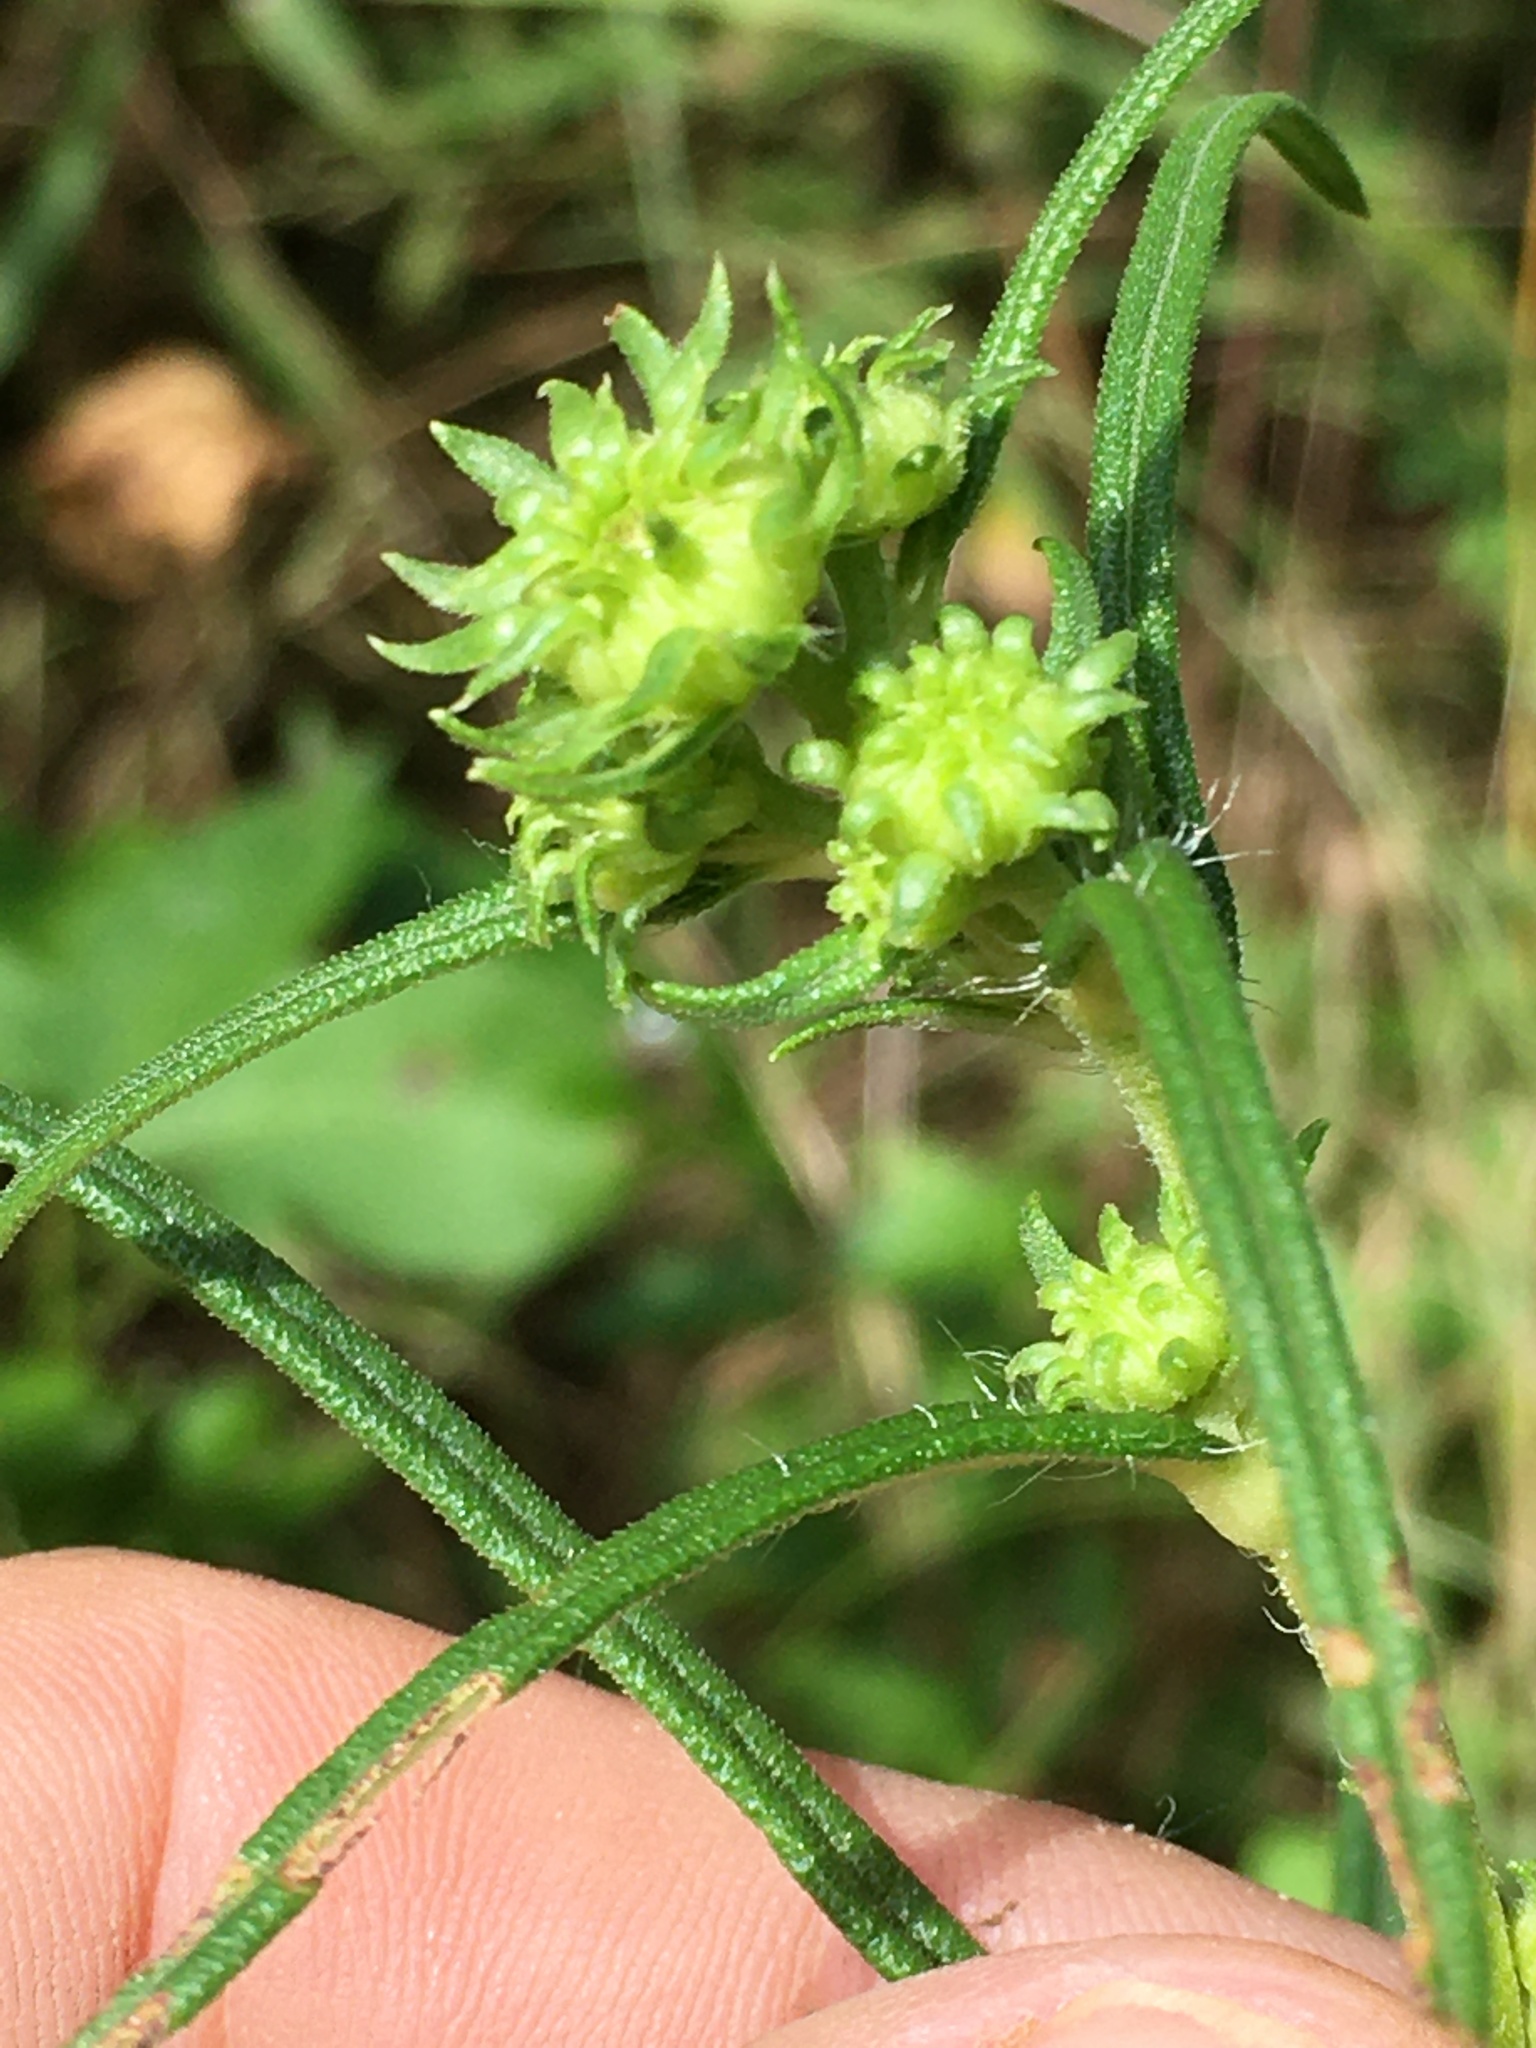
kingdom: Plantae
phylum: Tracheophyta
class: Magnoliopsida
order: Asterales
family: Asteraceae
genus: Helianthus
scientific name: Helianthus angustifolius
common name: Swamp sunflower
